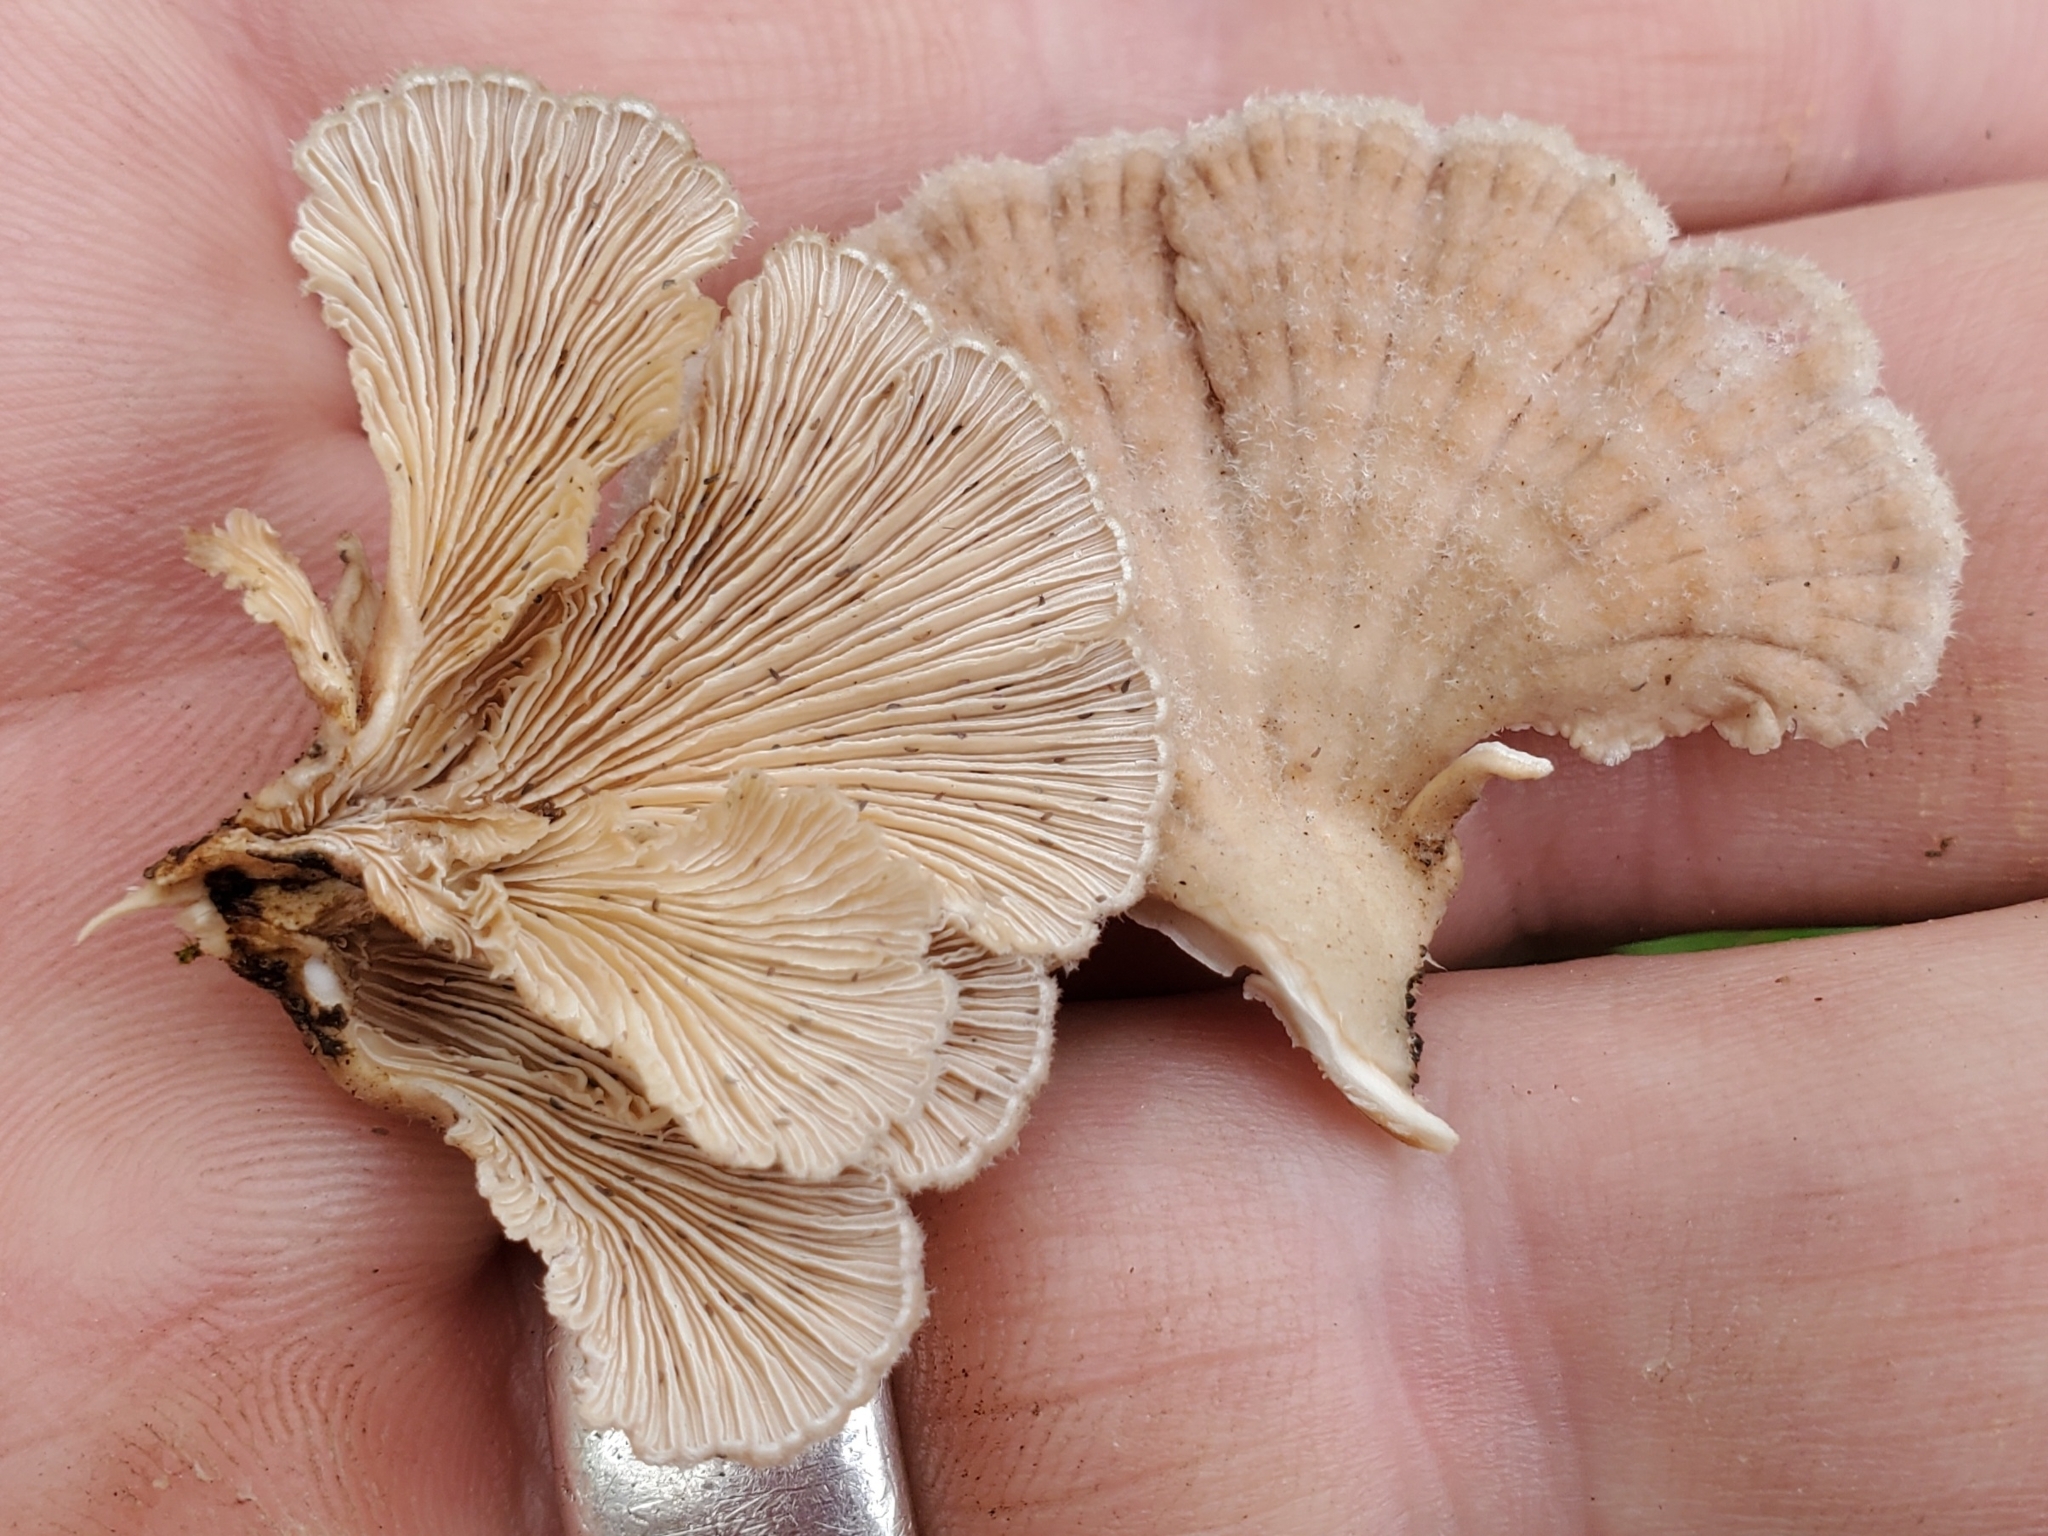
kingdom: Fungi
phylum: Basidiomycota
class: Agaricomycetes
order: Agaricales
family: Schizophyllaceae
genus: Schizophyllum
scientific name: Schizophyllum commune
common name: Common porecrust
